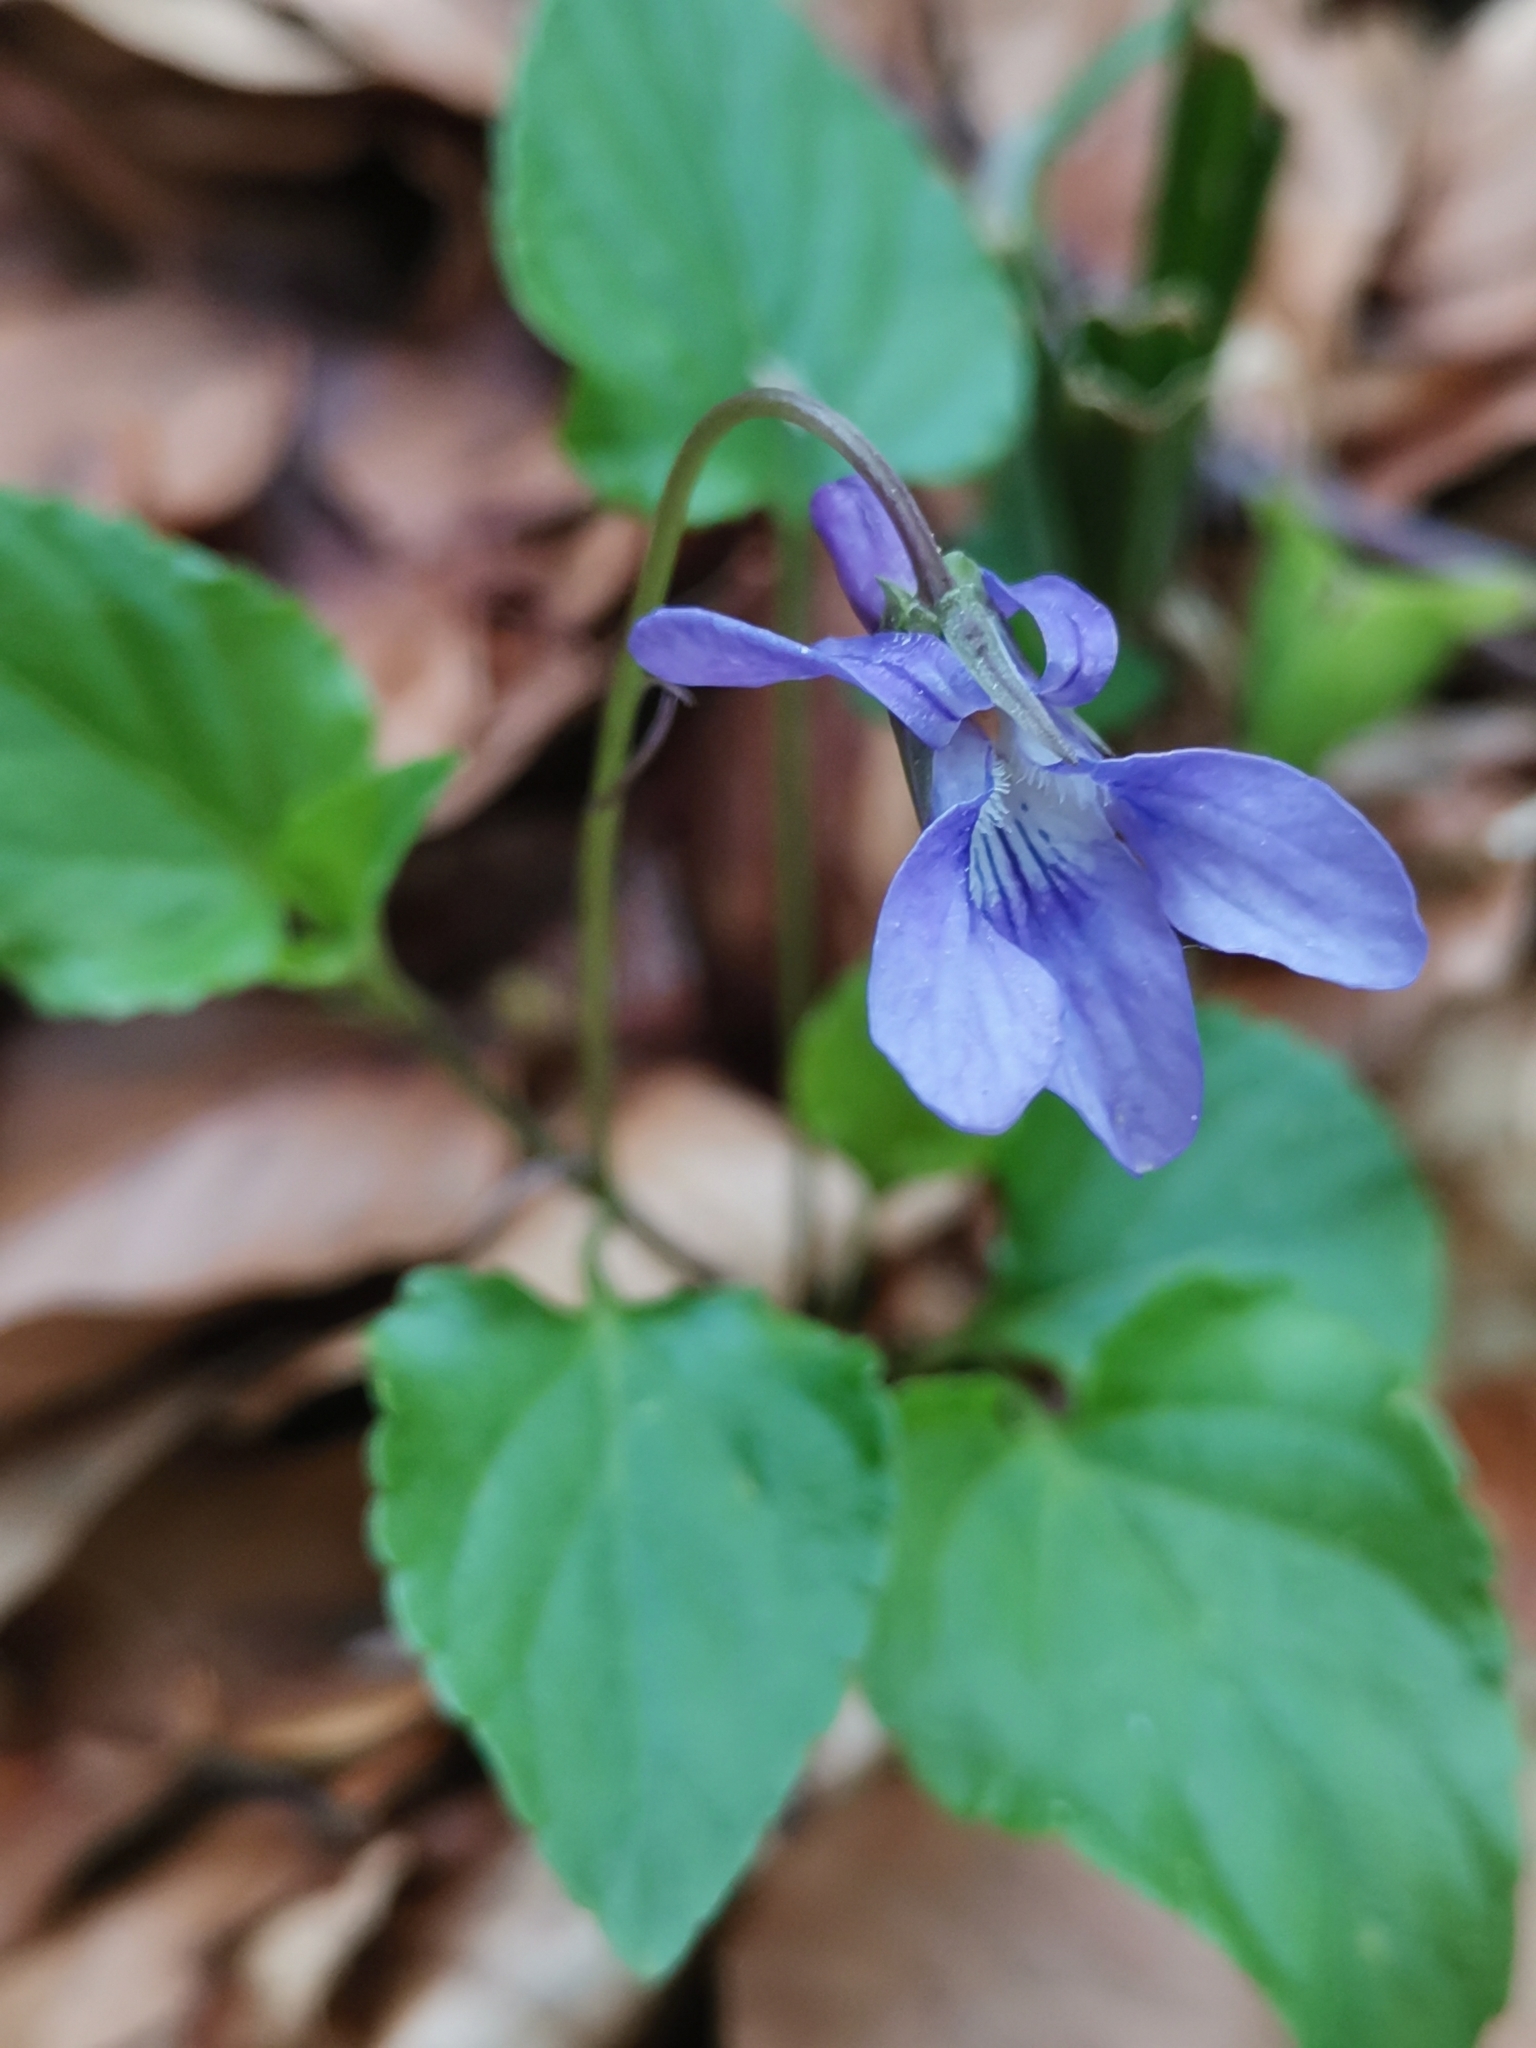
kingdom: Plantae
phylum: Tracheophyta
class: Magnoliopsida
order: Malpighiales
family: Violaceae
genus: Viola
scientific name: Viola reichenbachiana
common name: Early dog-violet
